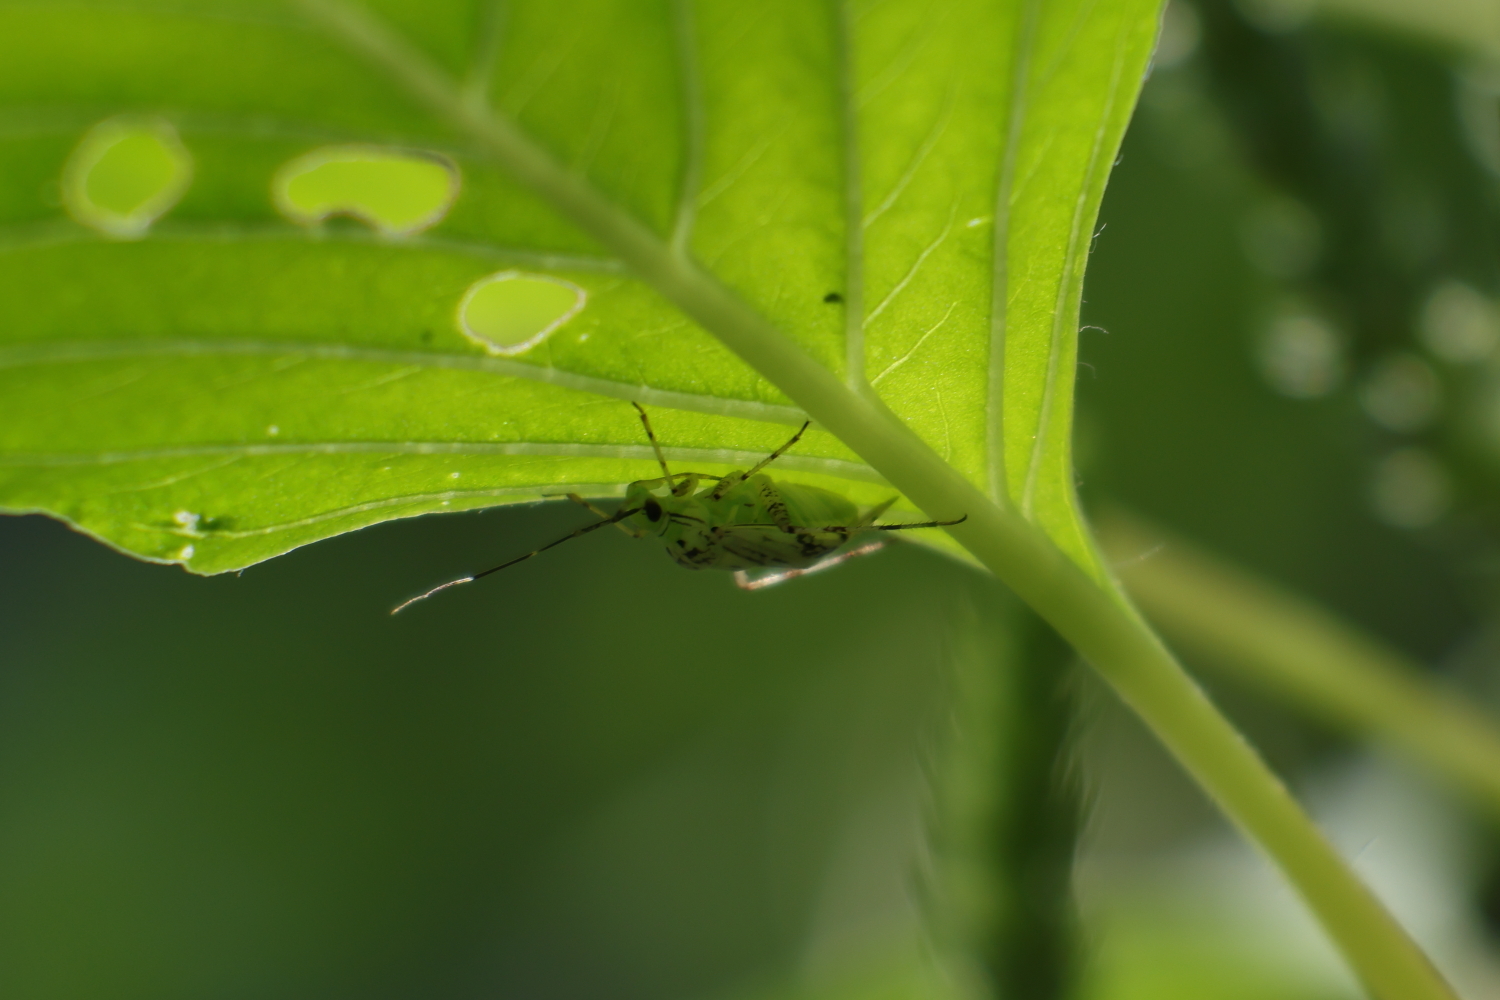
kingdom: Animalia
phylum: Arthropoda
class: Insecta
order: Hemiptera
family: Miridae
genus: Taedia
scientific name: Taedia marmorata
